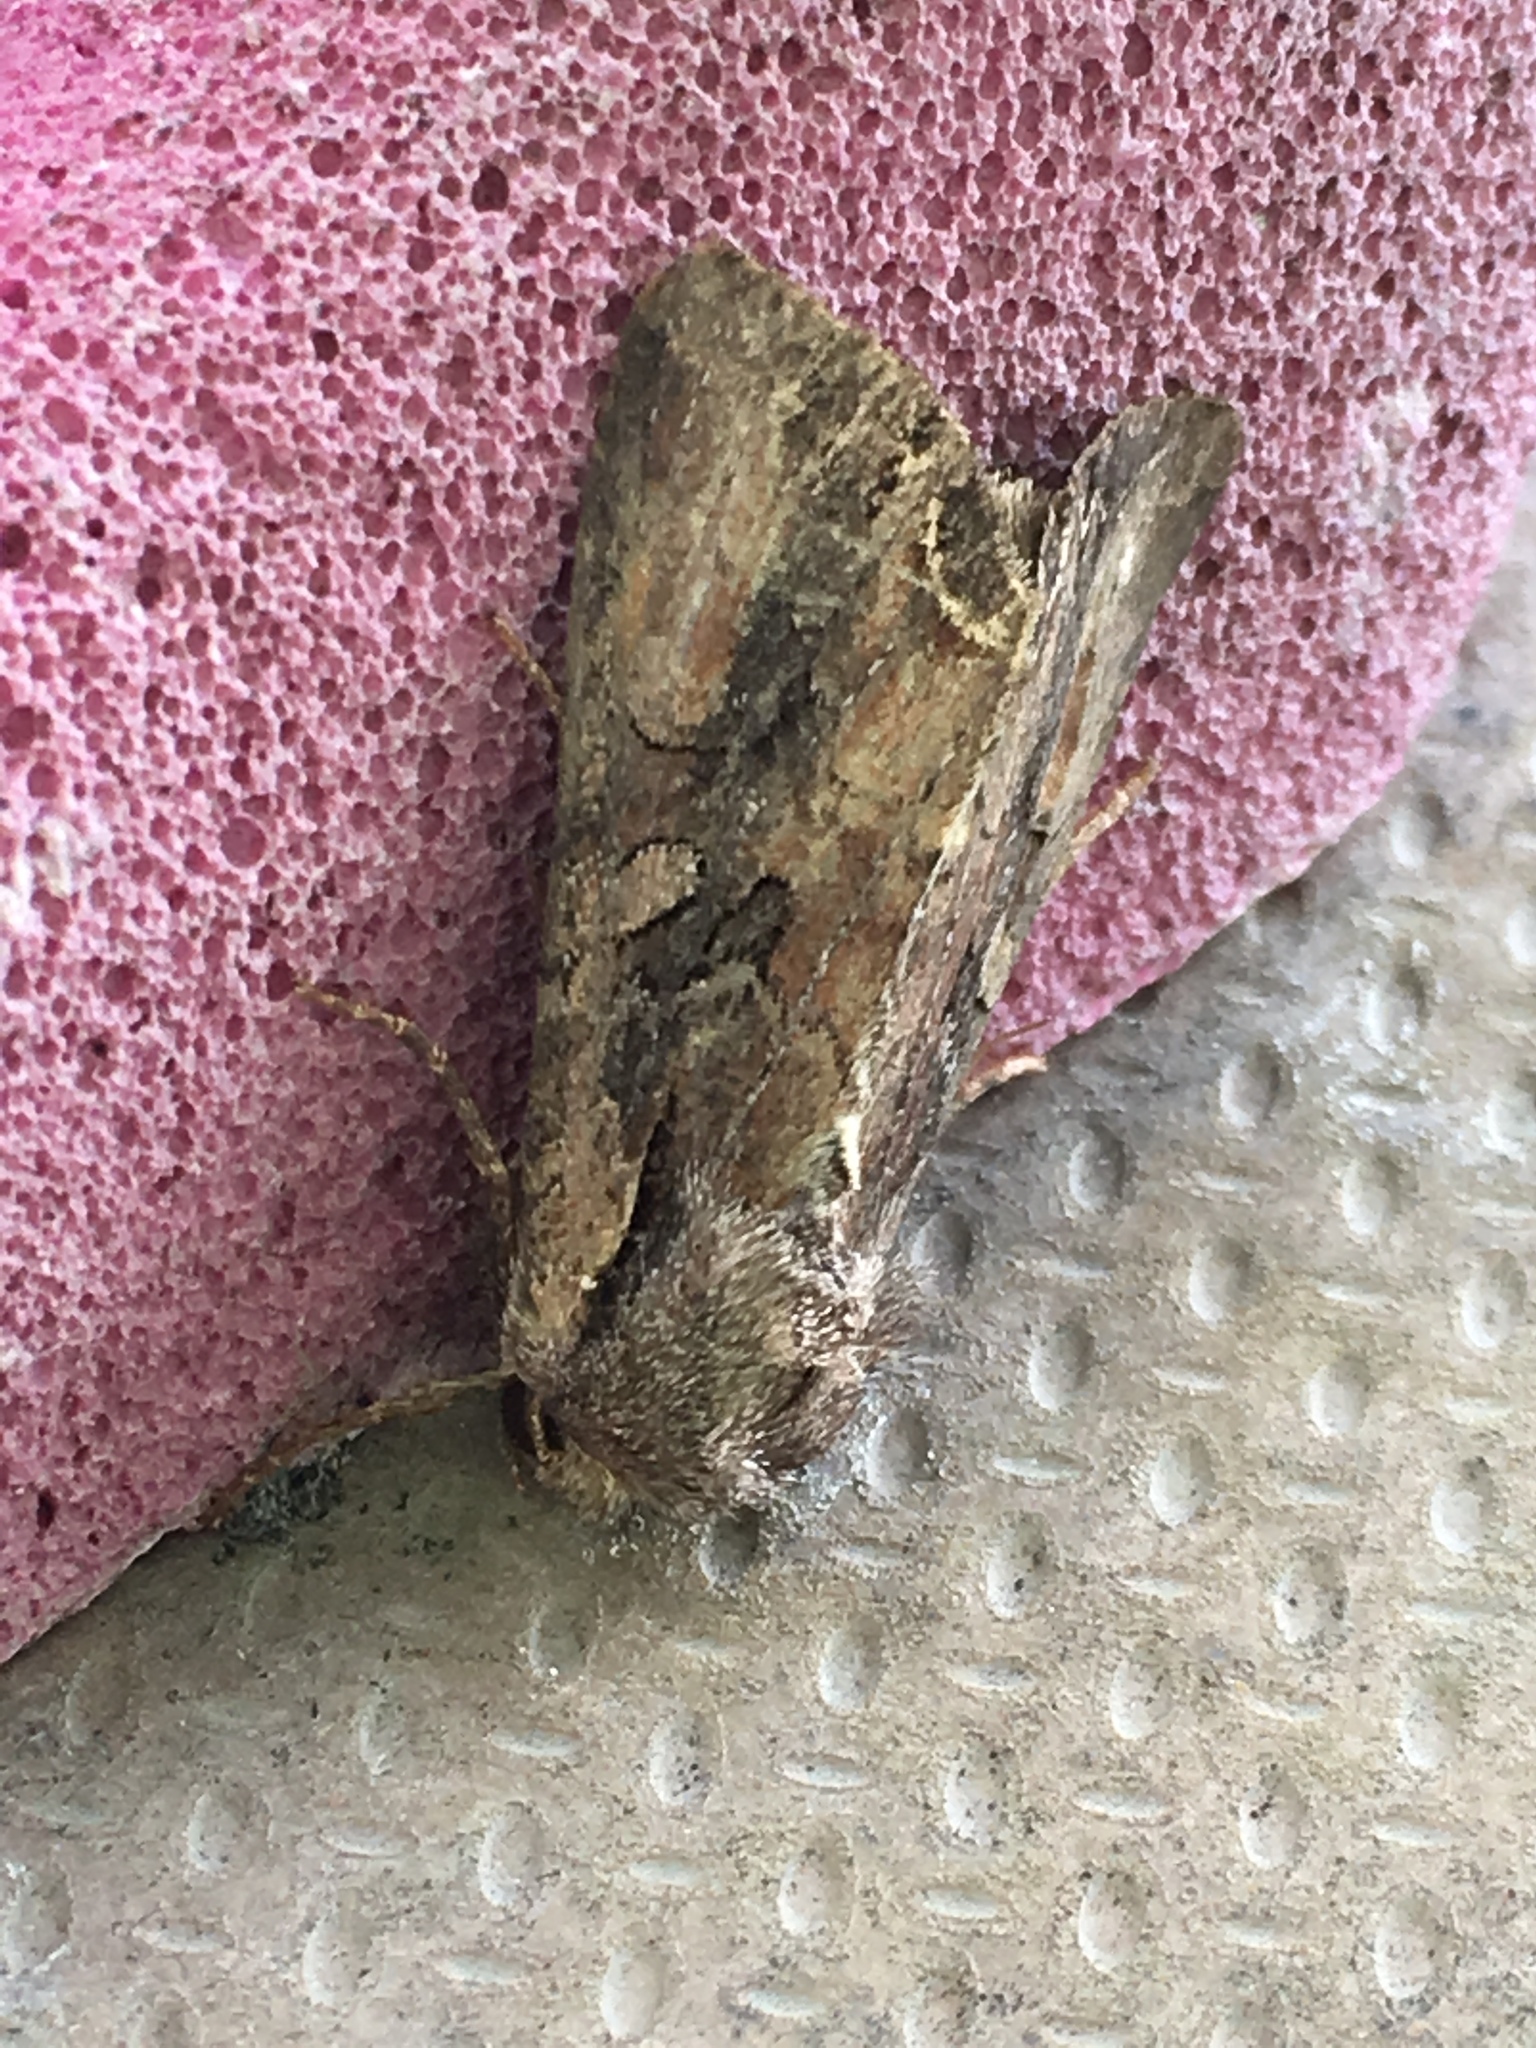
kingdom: Animalia
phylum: Arthropoda
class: Insecta
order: Lepidoptera
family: Noctuidae
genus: Lacanobia
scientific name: Lacanobia suasa
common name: Dog's tooth
